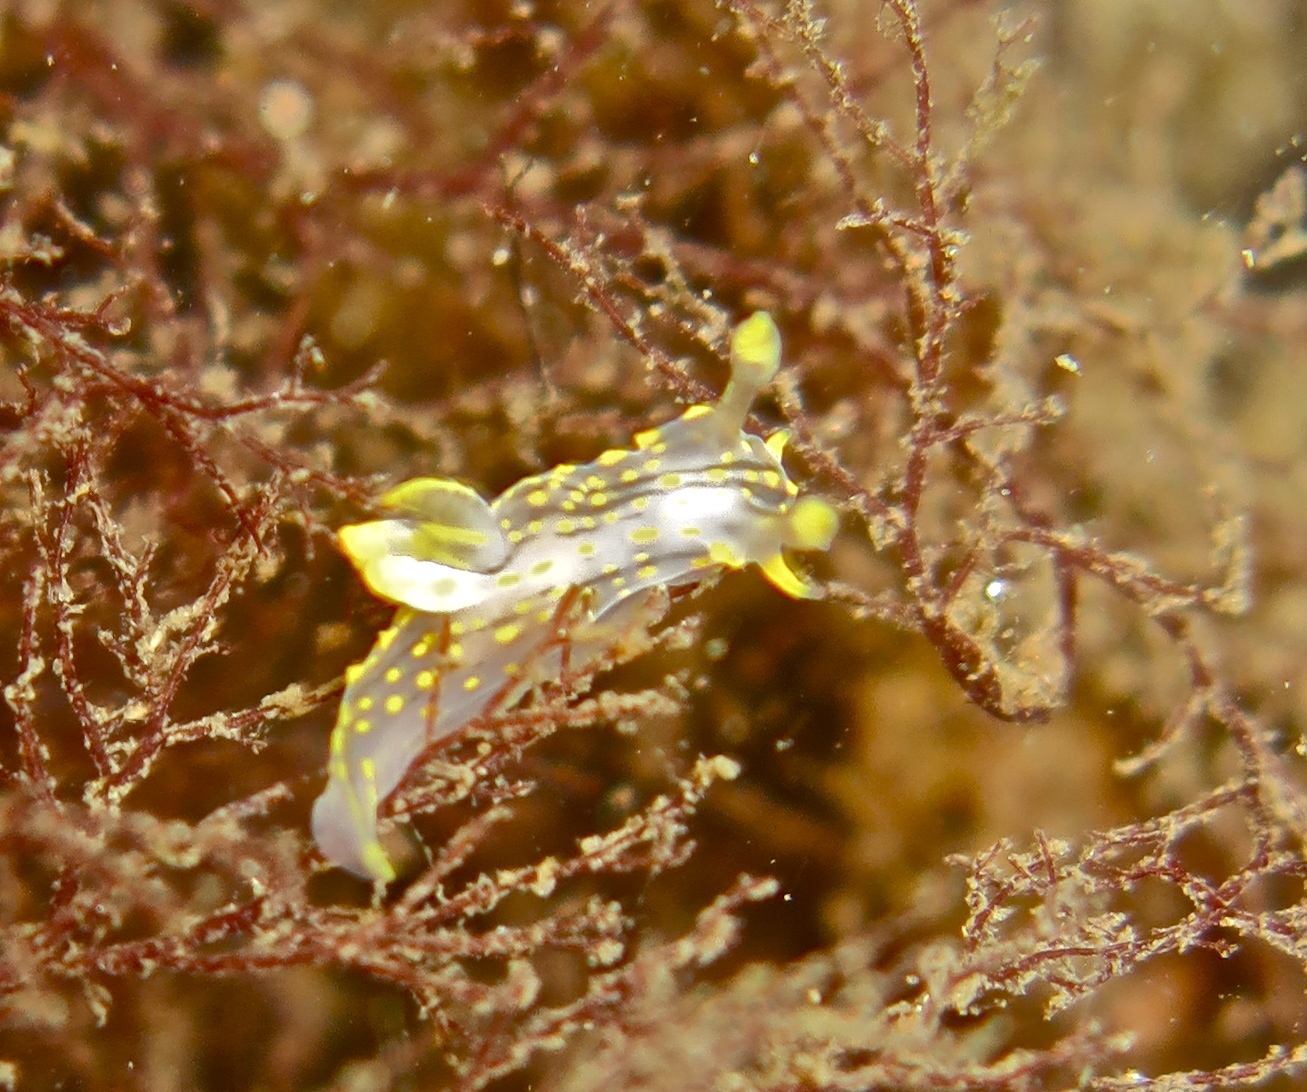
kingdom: Animalia
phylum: Mollusca
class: Gastropoda
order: Nudibranchia
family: Polyceridae
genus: Polycera
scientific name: Polycera quadrilineata
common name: Four-striped polycera
